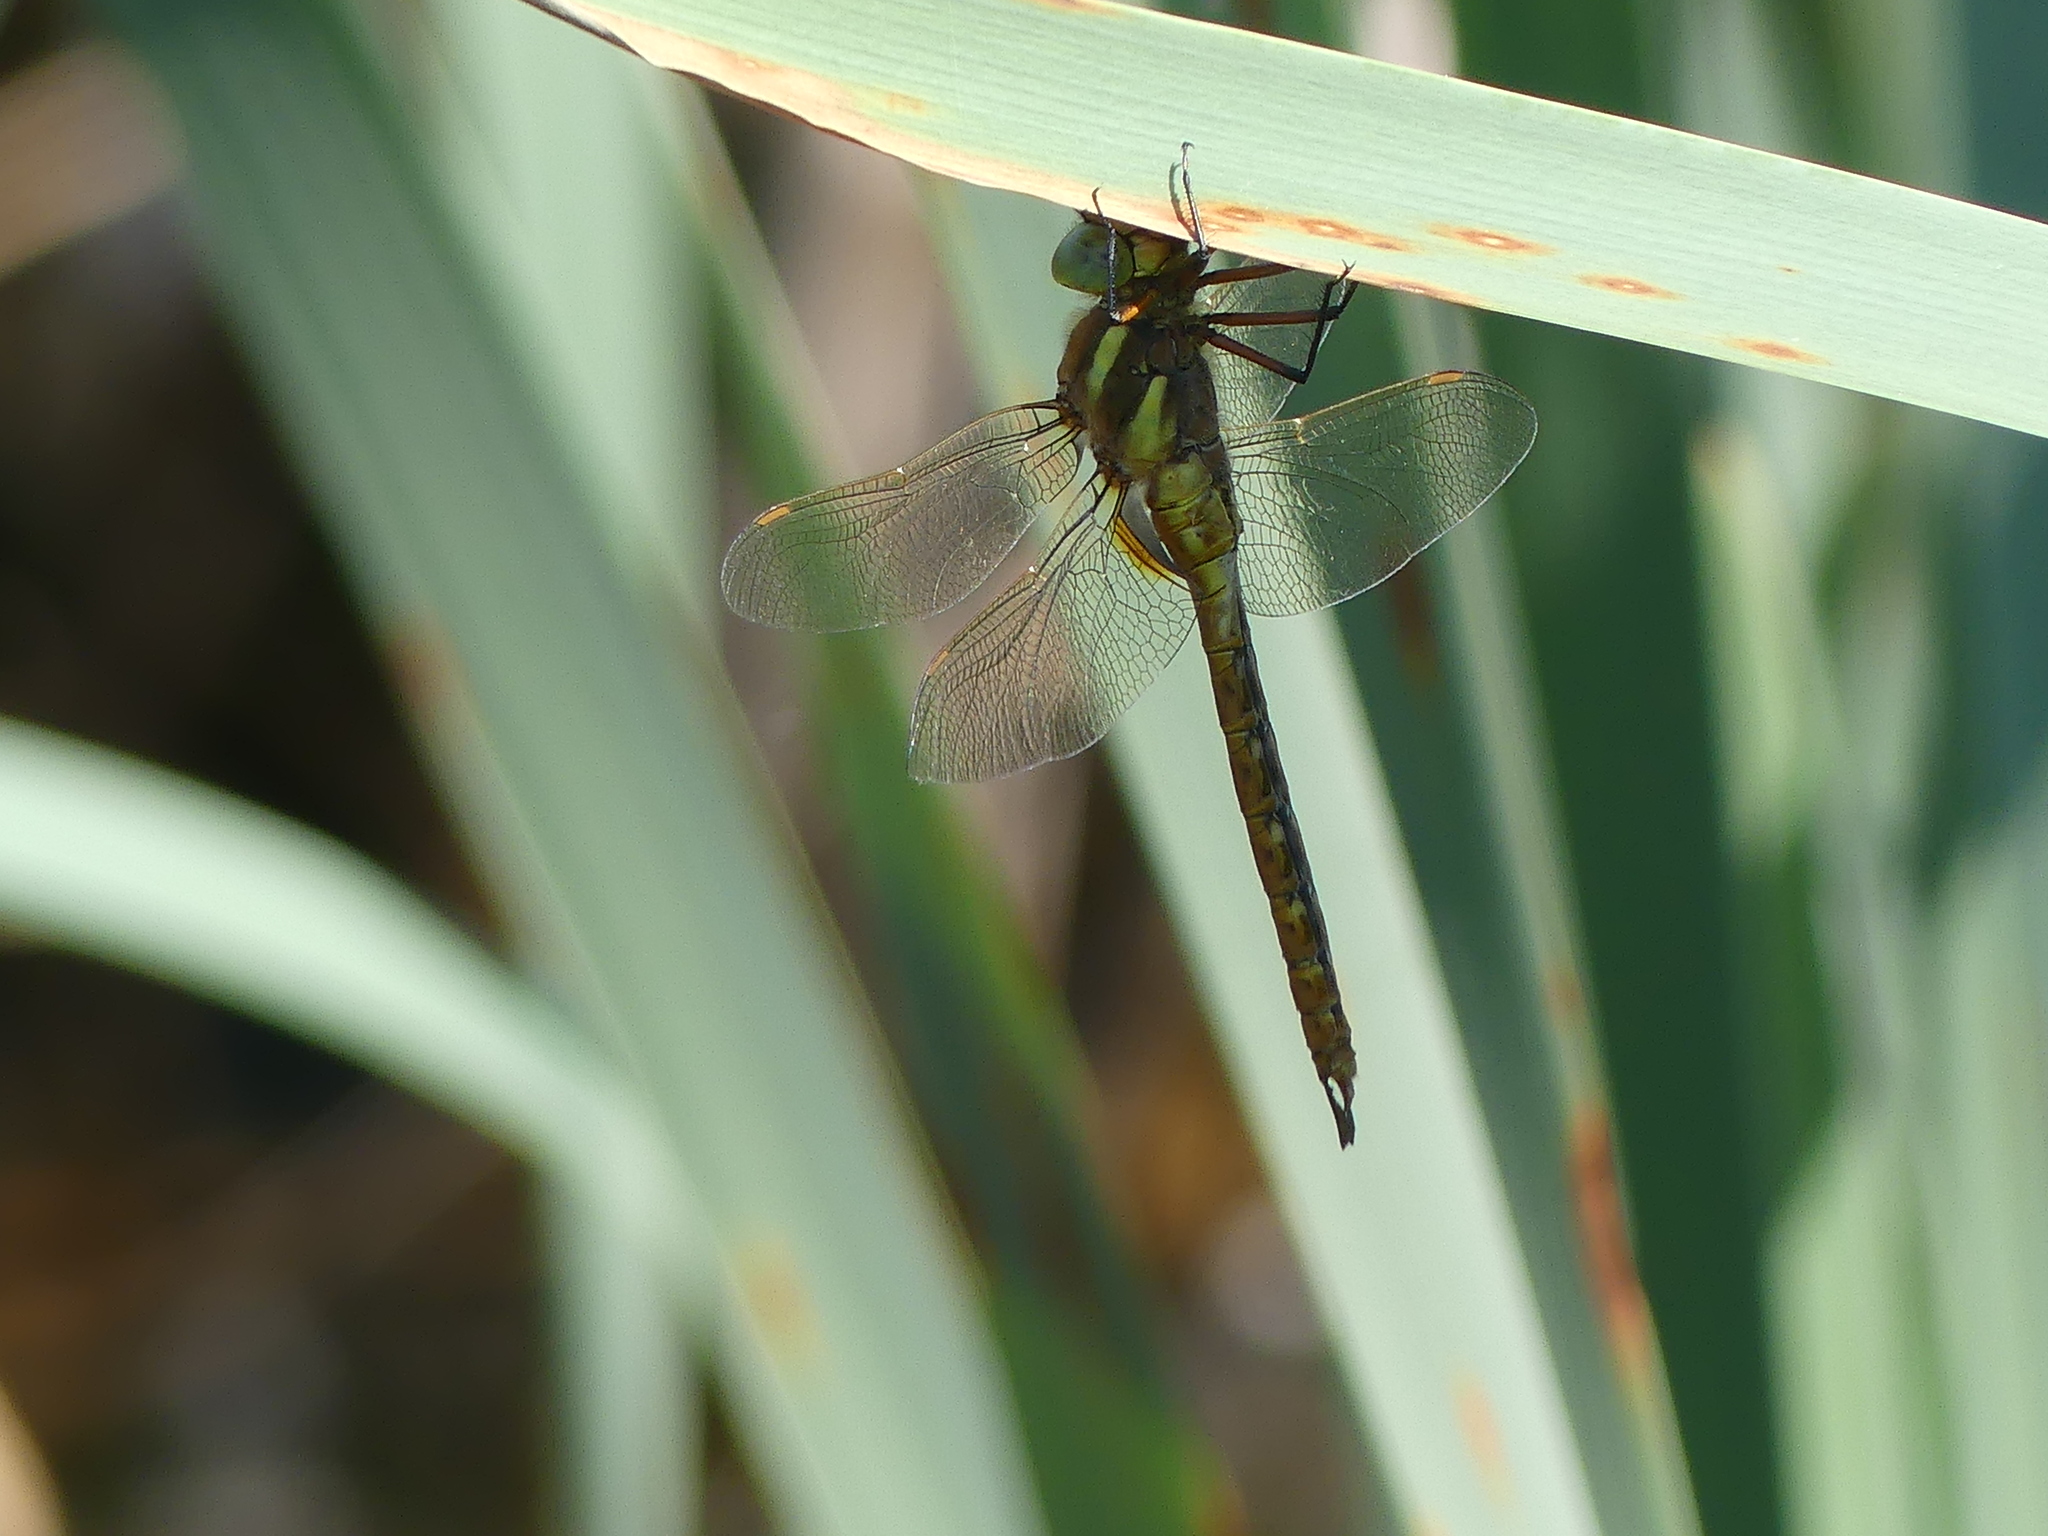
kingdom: Animalia
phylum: Arthropoda
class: Insecta
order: Odonata
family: Aeshnidae
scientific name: Aeshnidae
